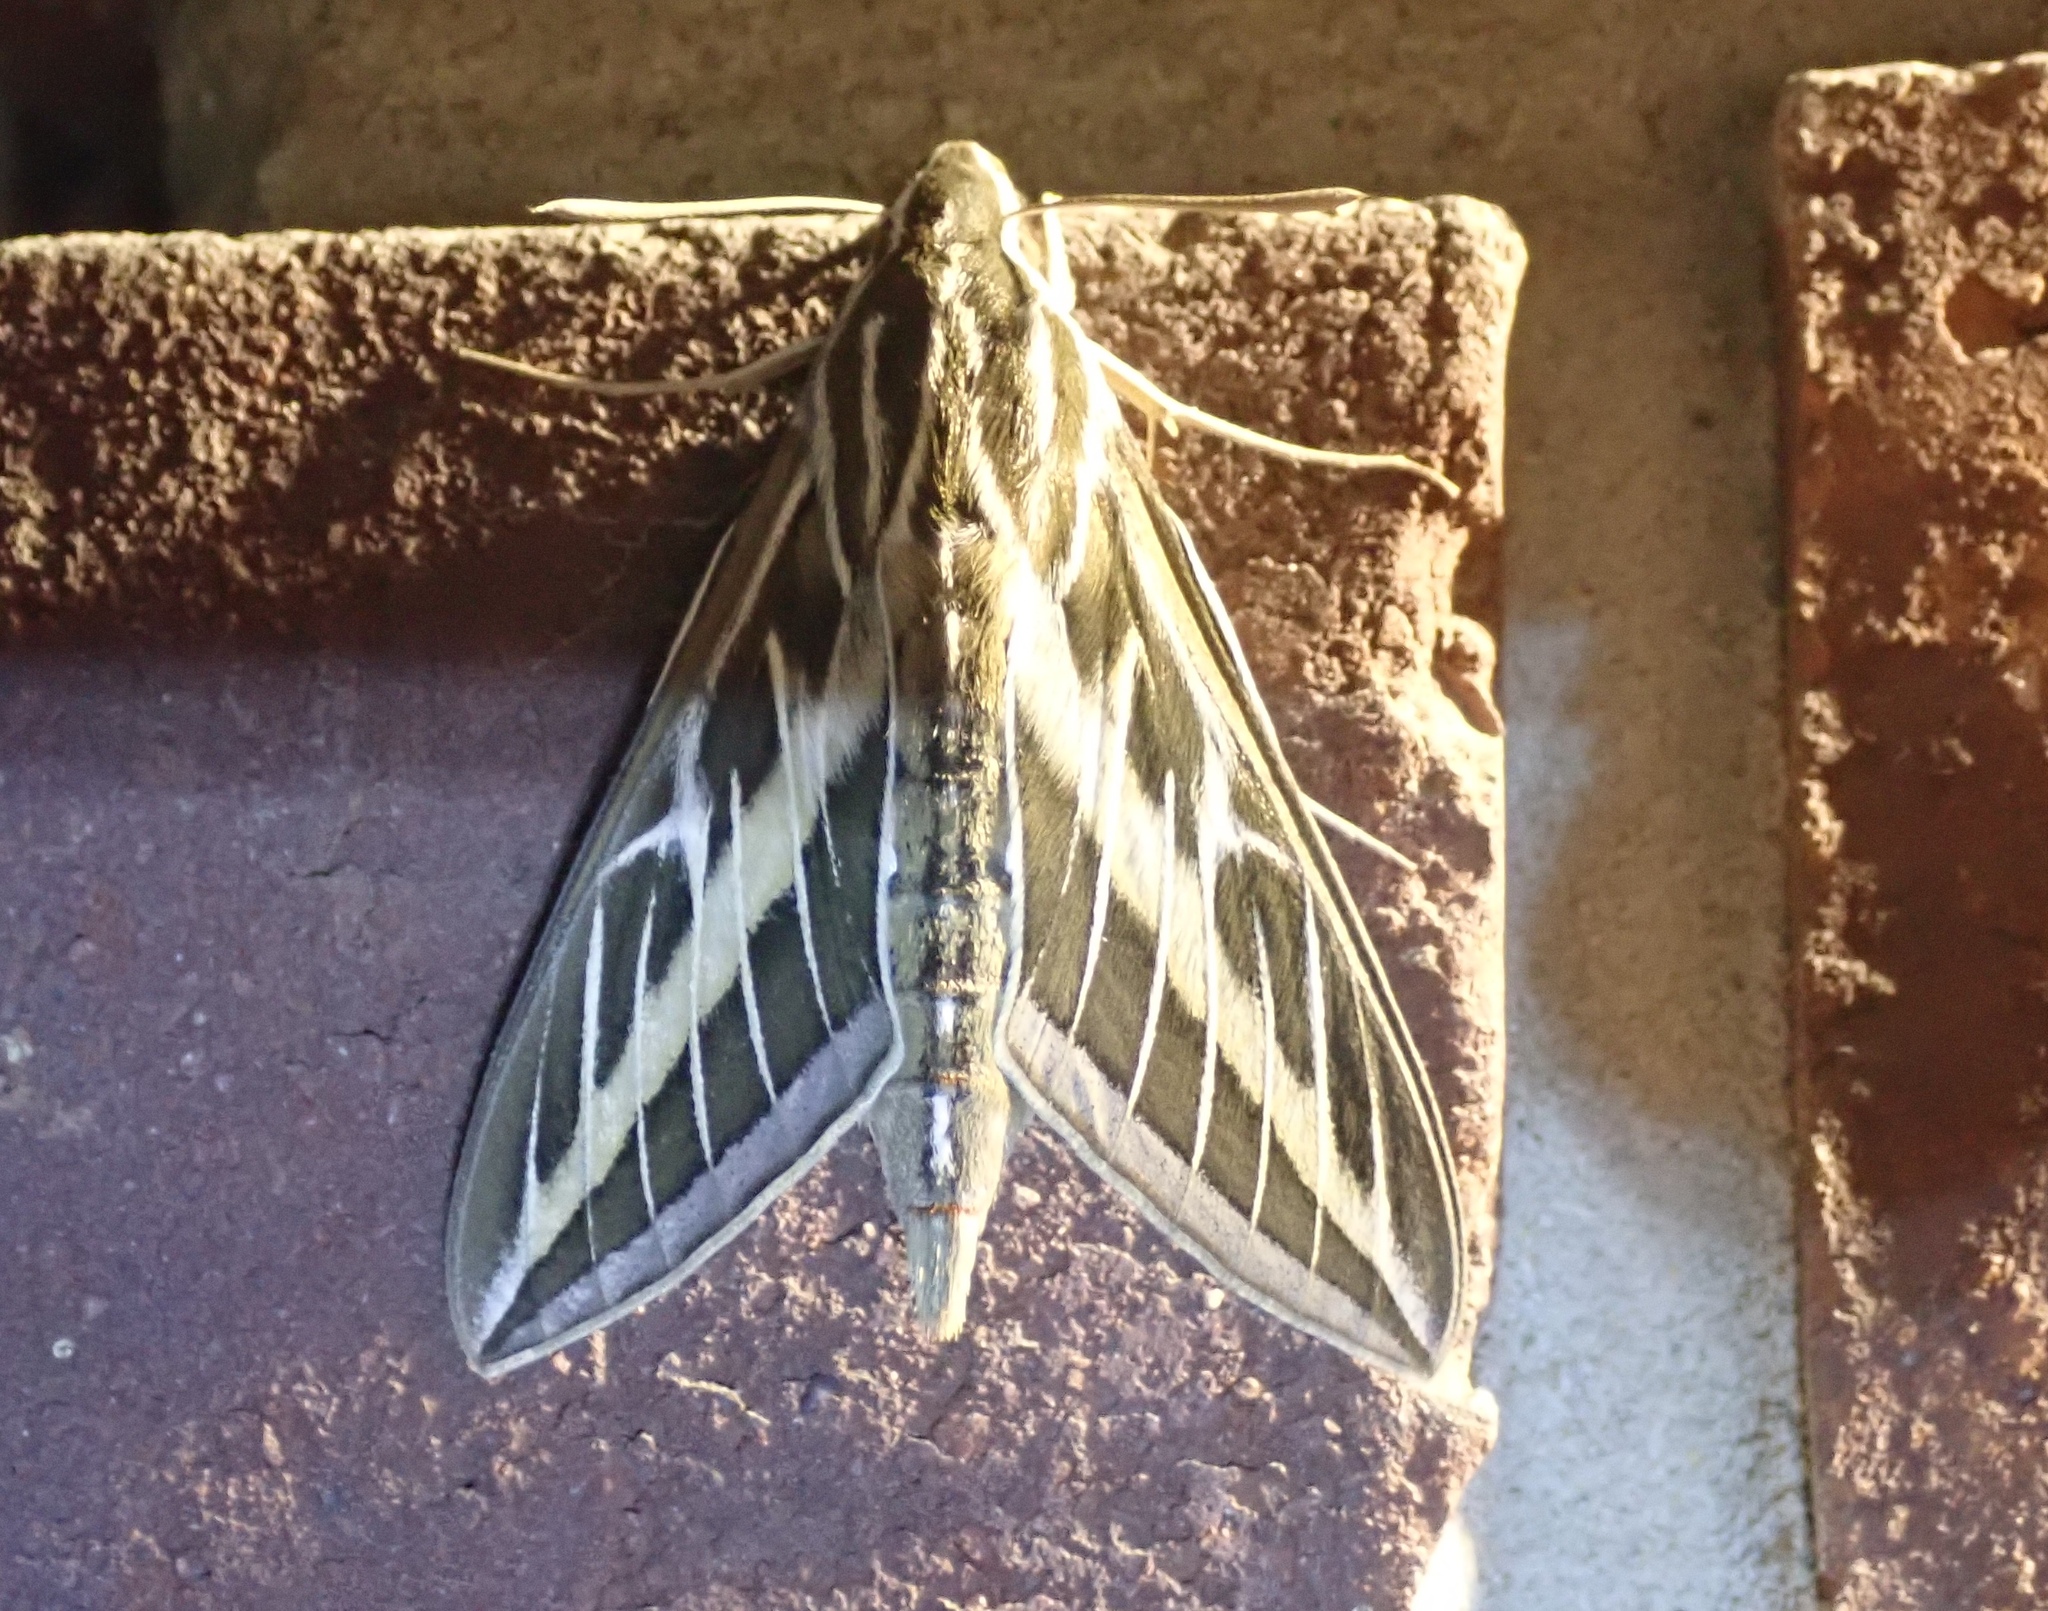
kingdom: Animalia
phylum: Arthropoda
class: Insecta
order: Lepidoptera
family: Sphingidae
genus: Hyles
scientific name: Hyles lineata
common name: White-lined sphinx
